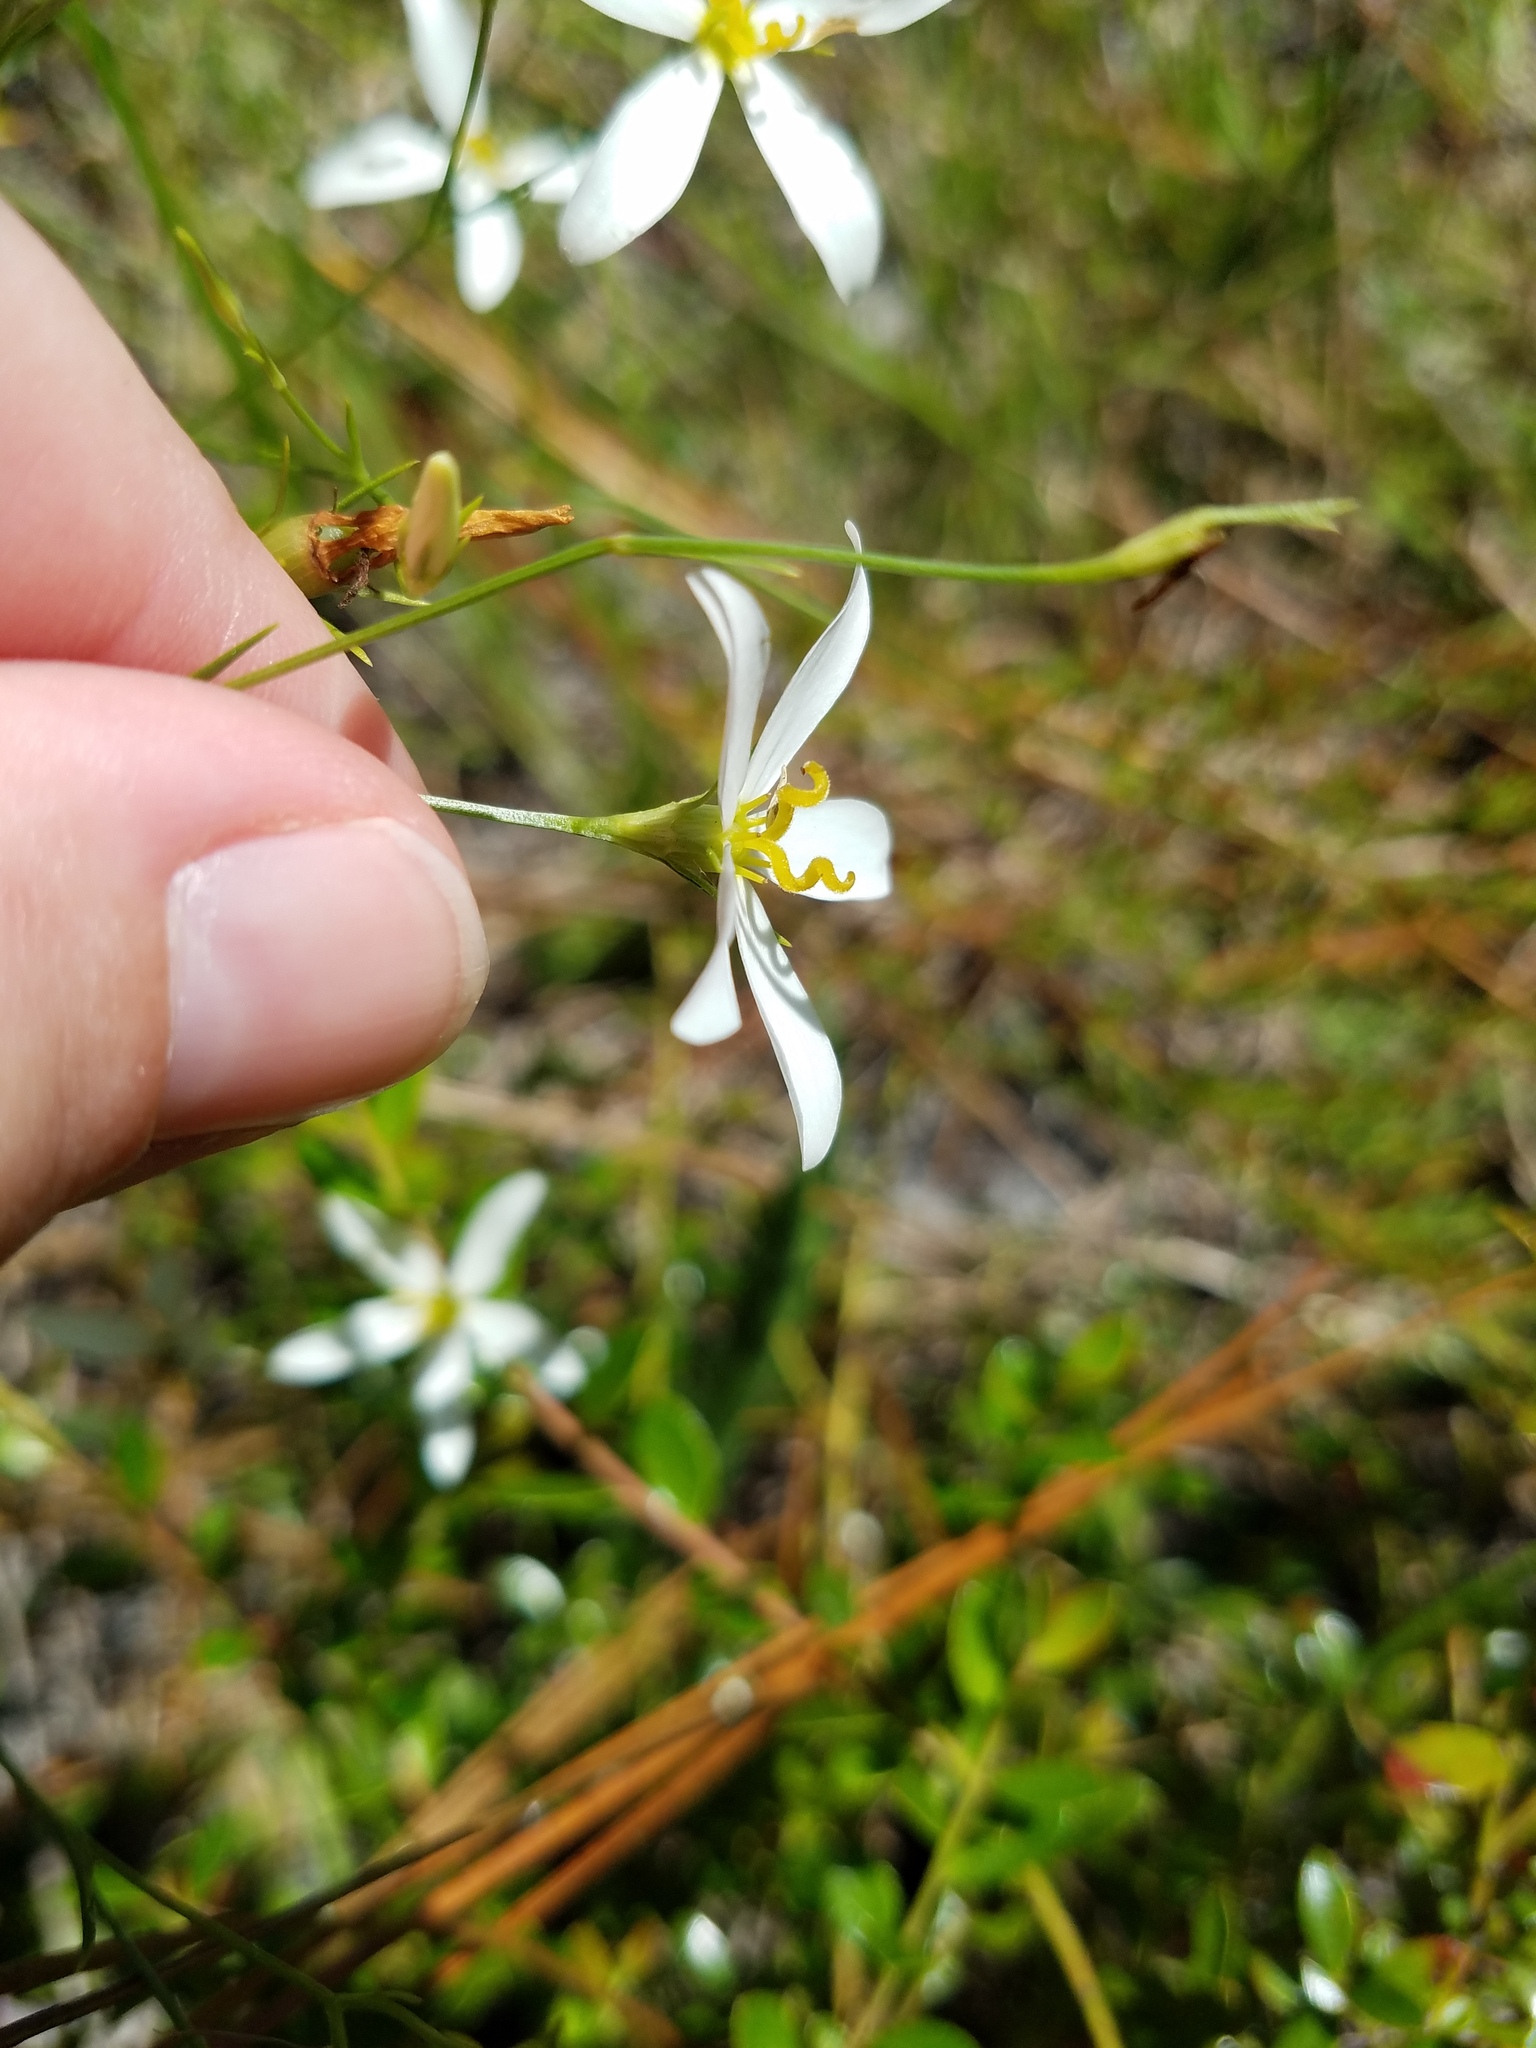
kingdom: Plantae
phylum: Tracheophyta
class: Magnoliopsida
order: Gentianales
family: Gentianaceae
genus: Sabatia
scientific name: Sabatia brevifolia
